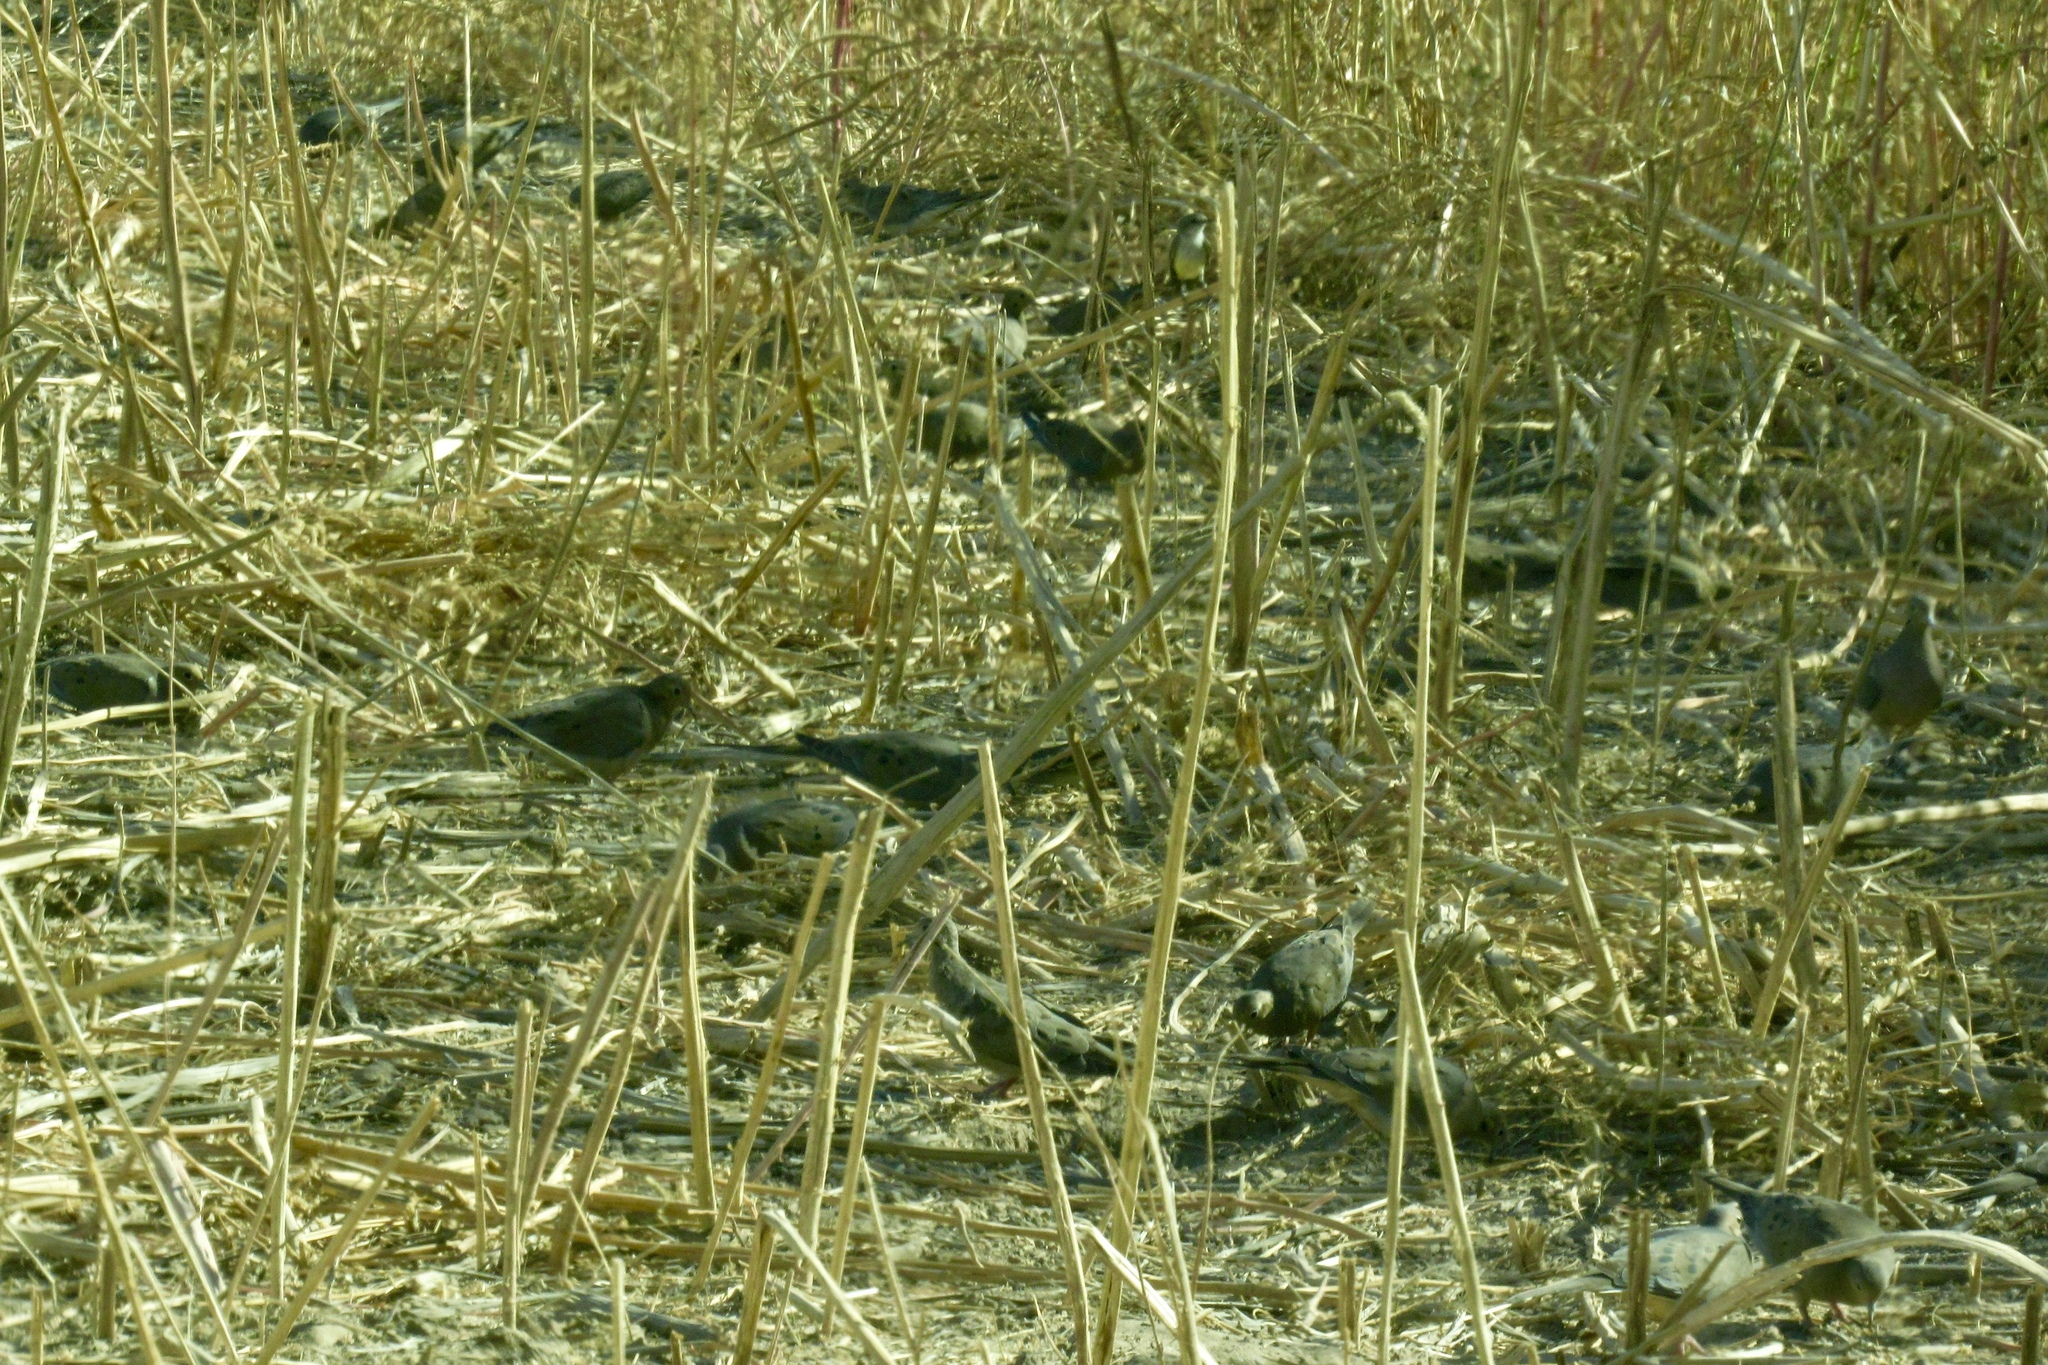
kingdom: Animalia
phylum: Chordata
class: Aves
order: Columbiformes
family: Columbidae
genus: Zenaida
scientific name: Zenaida macroura
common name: Mourning dove
